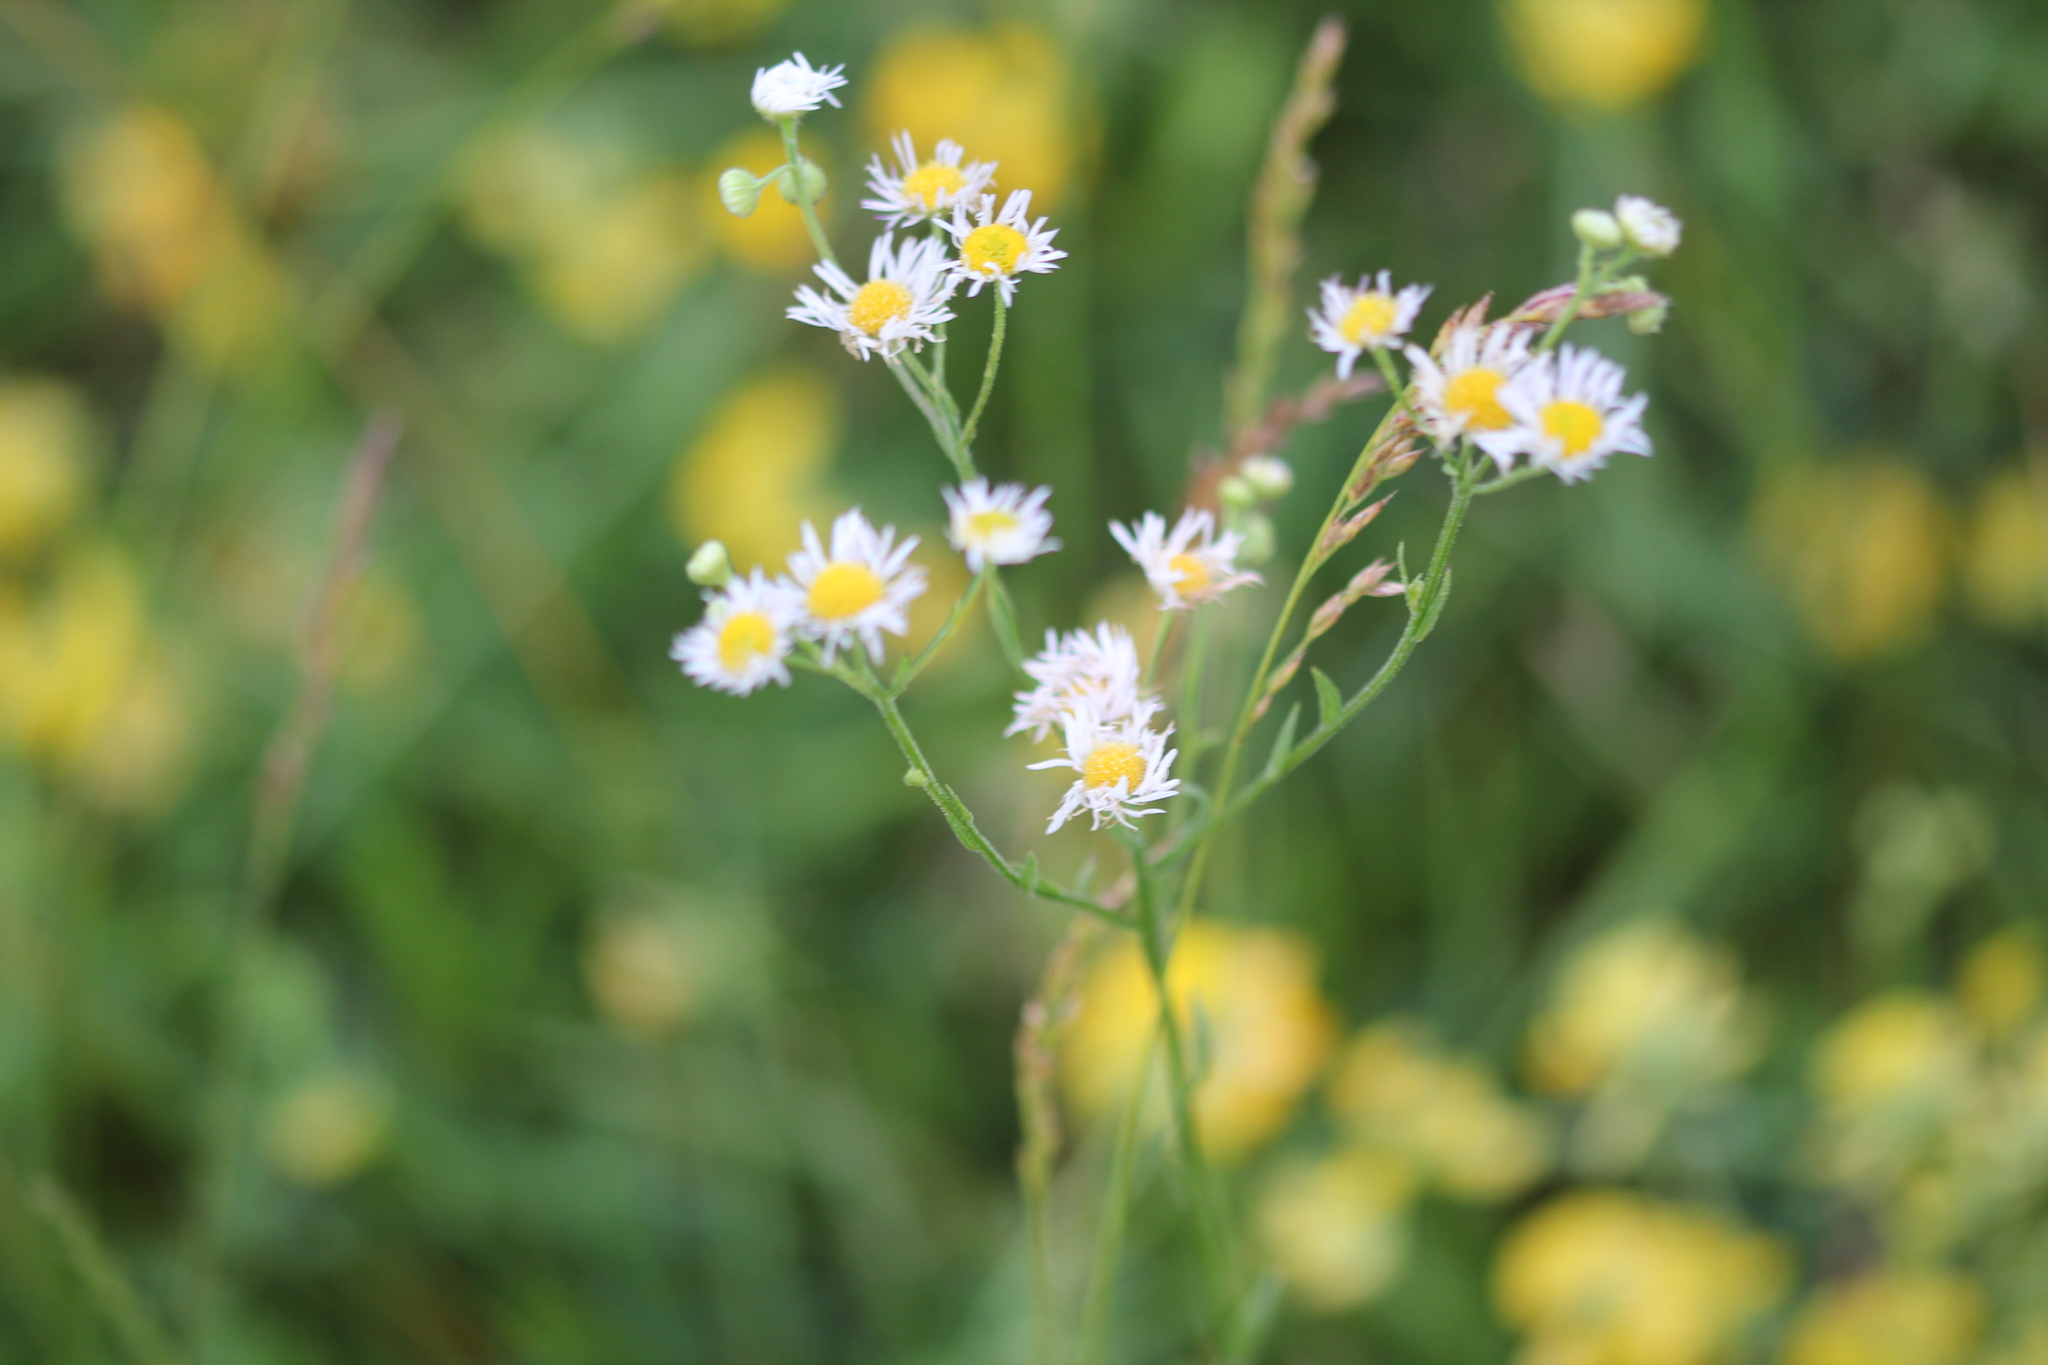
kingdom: Plantae
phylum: Tracheophyta
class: Magnoliopsida
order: Asterales
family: Asteraceae
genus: Erigeron
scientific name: Erigeron strigosus
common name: Common eastern fleabane
